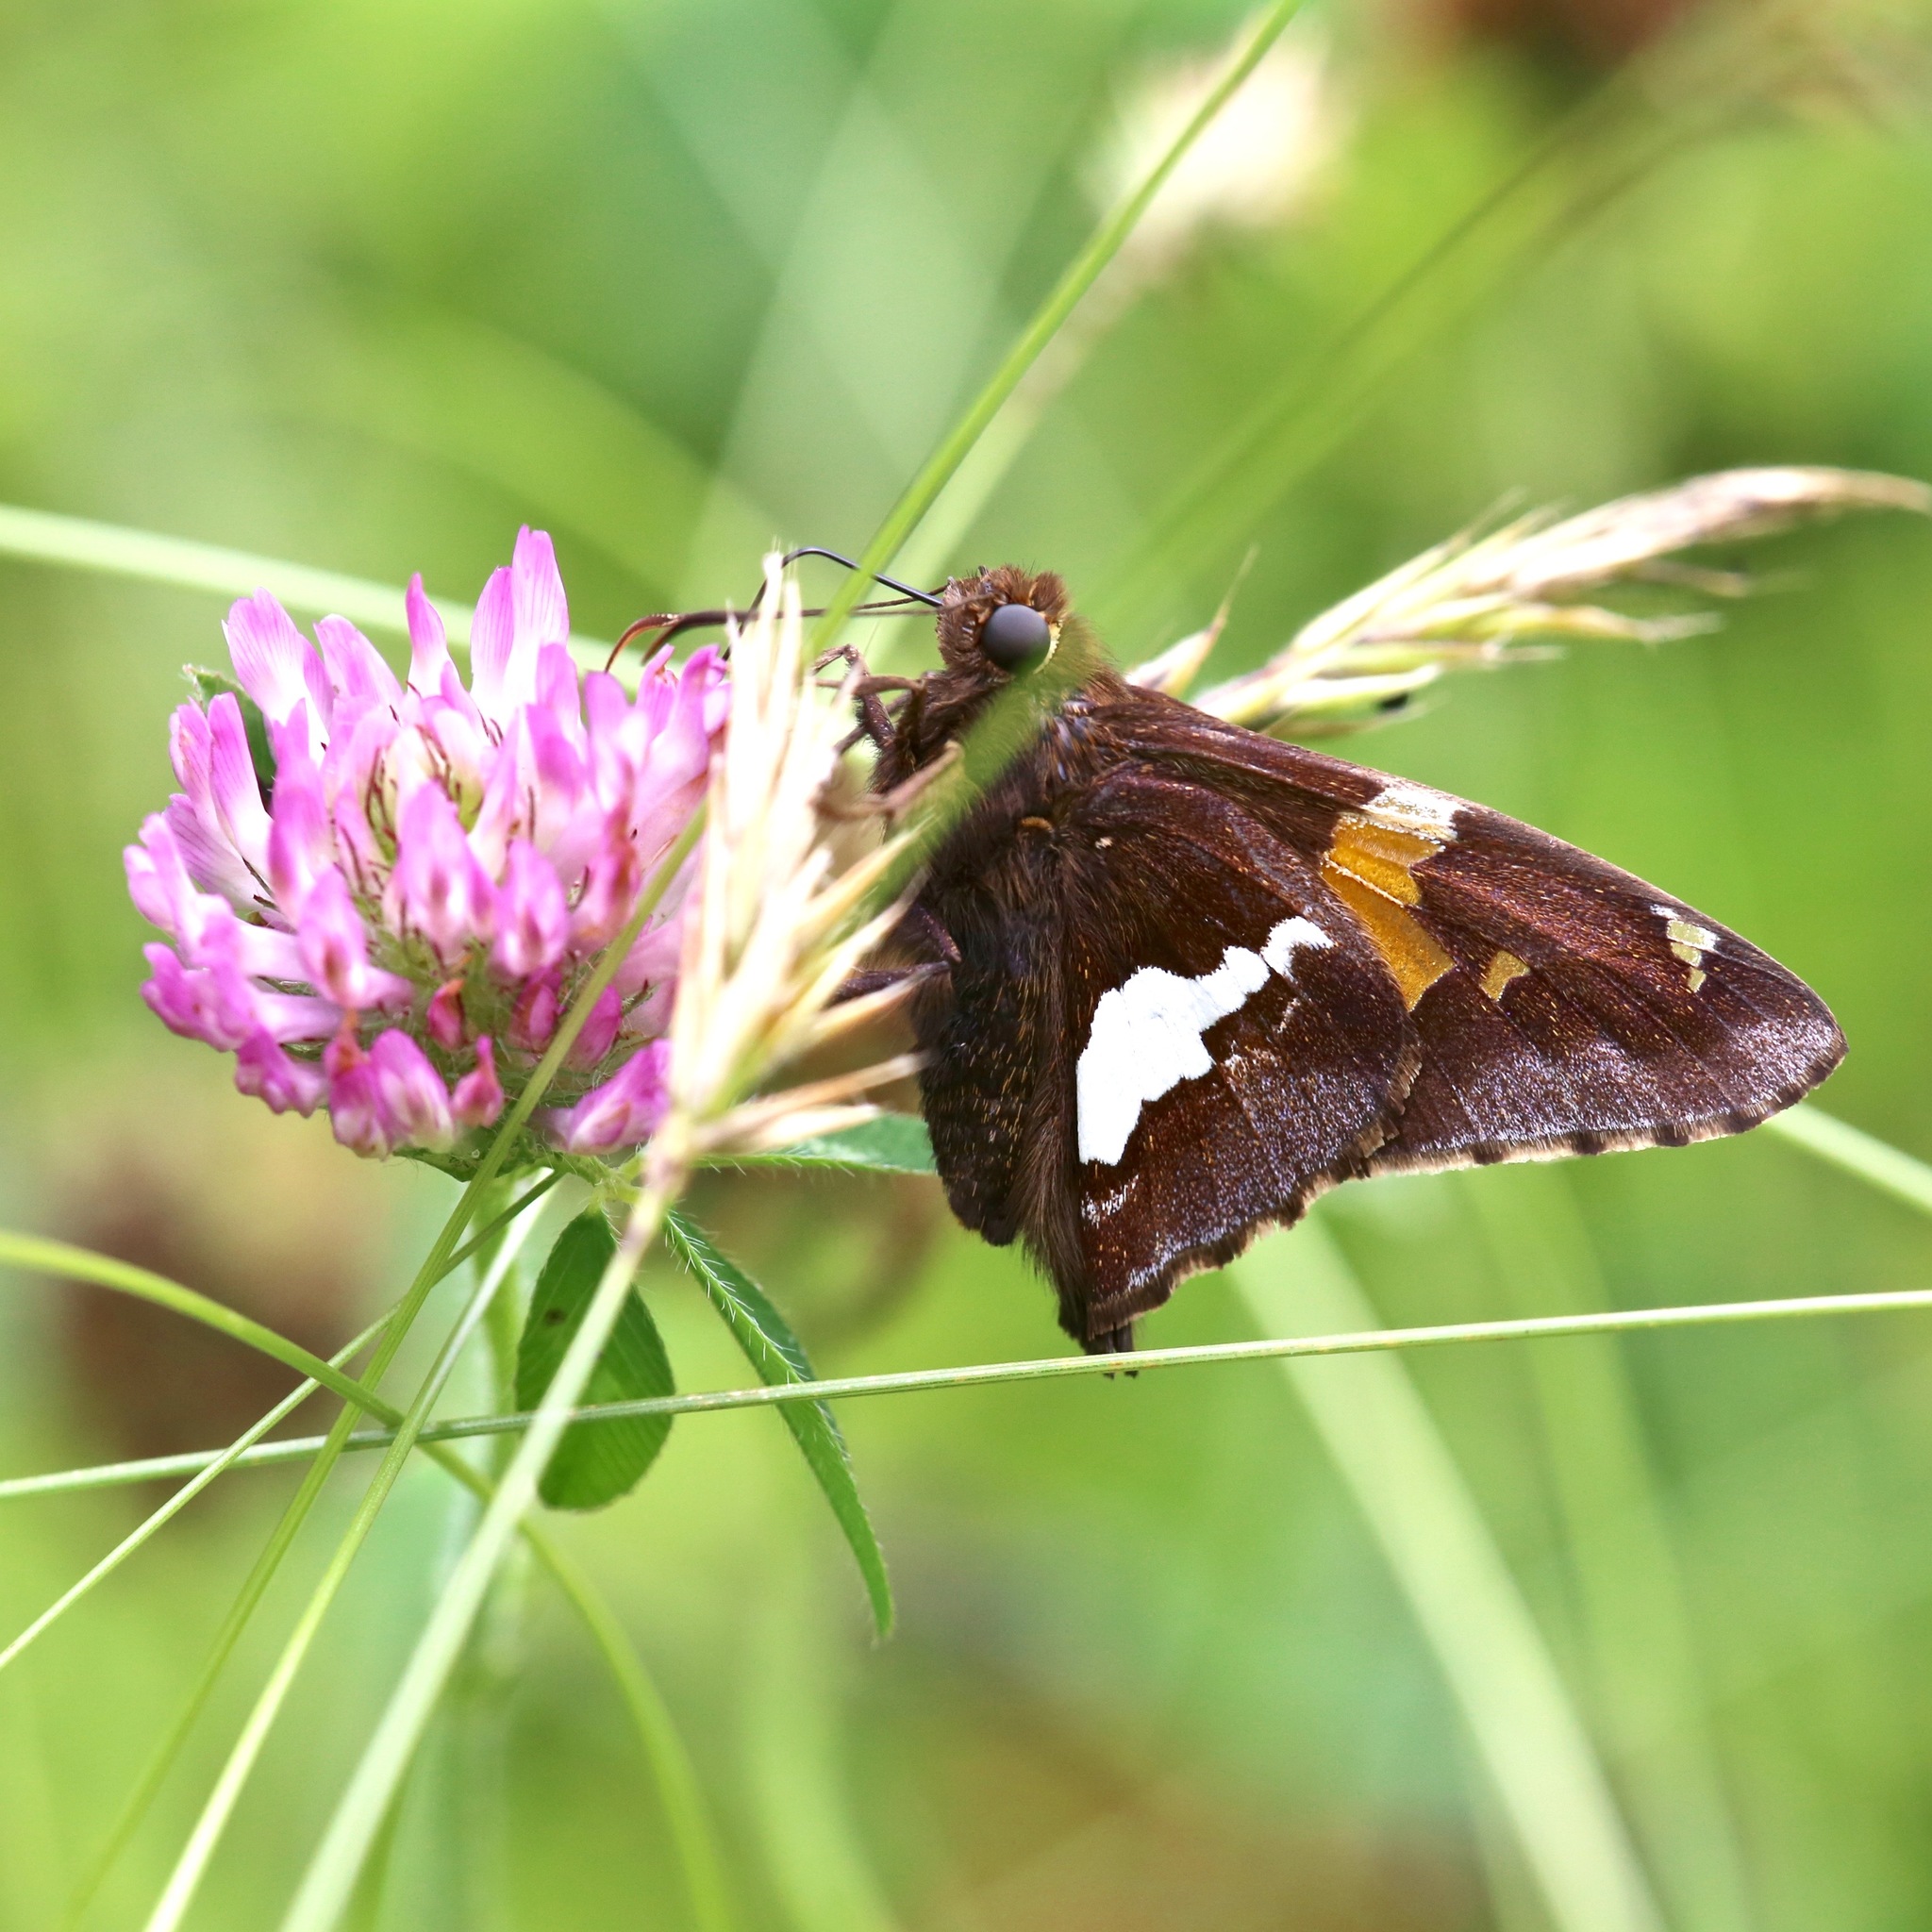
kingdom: Animalia
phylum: Arthropoda
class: Insecta
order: Lepidoptera
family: Hesperiidae
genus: Epargyreus
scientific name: Epargyreus clarus
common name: Silver-spotted skipper
